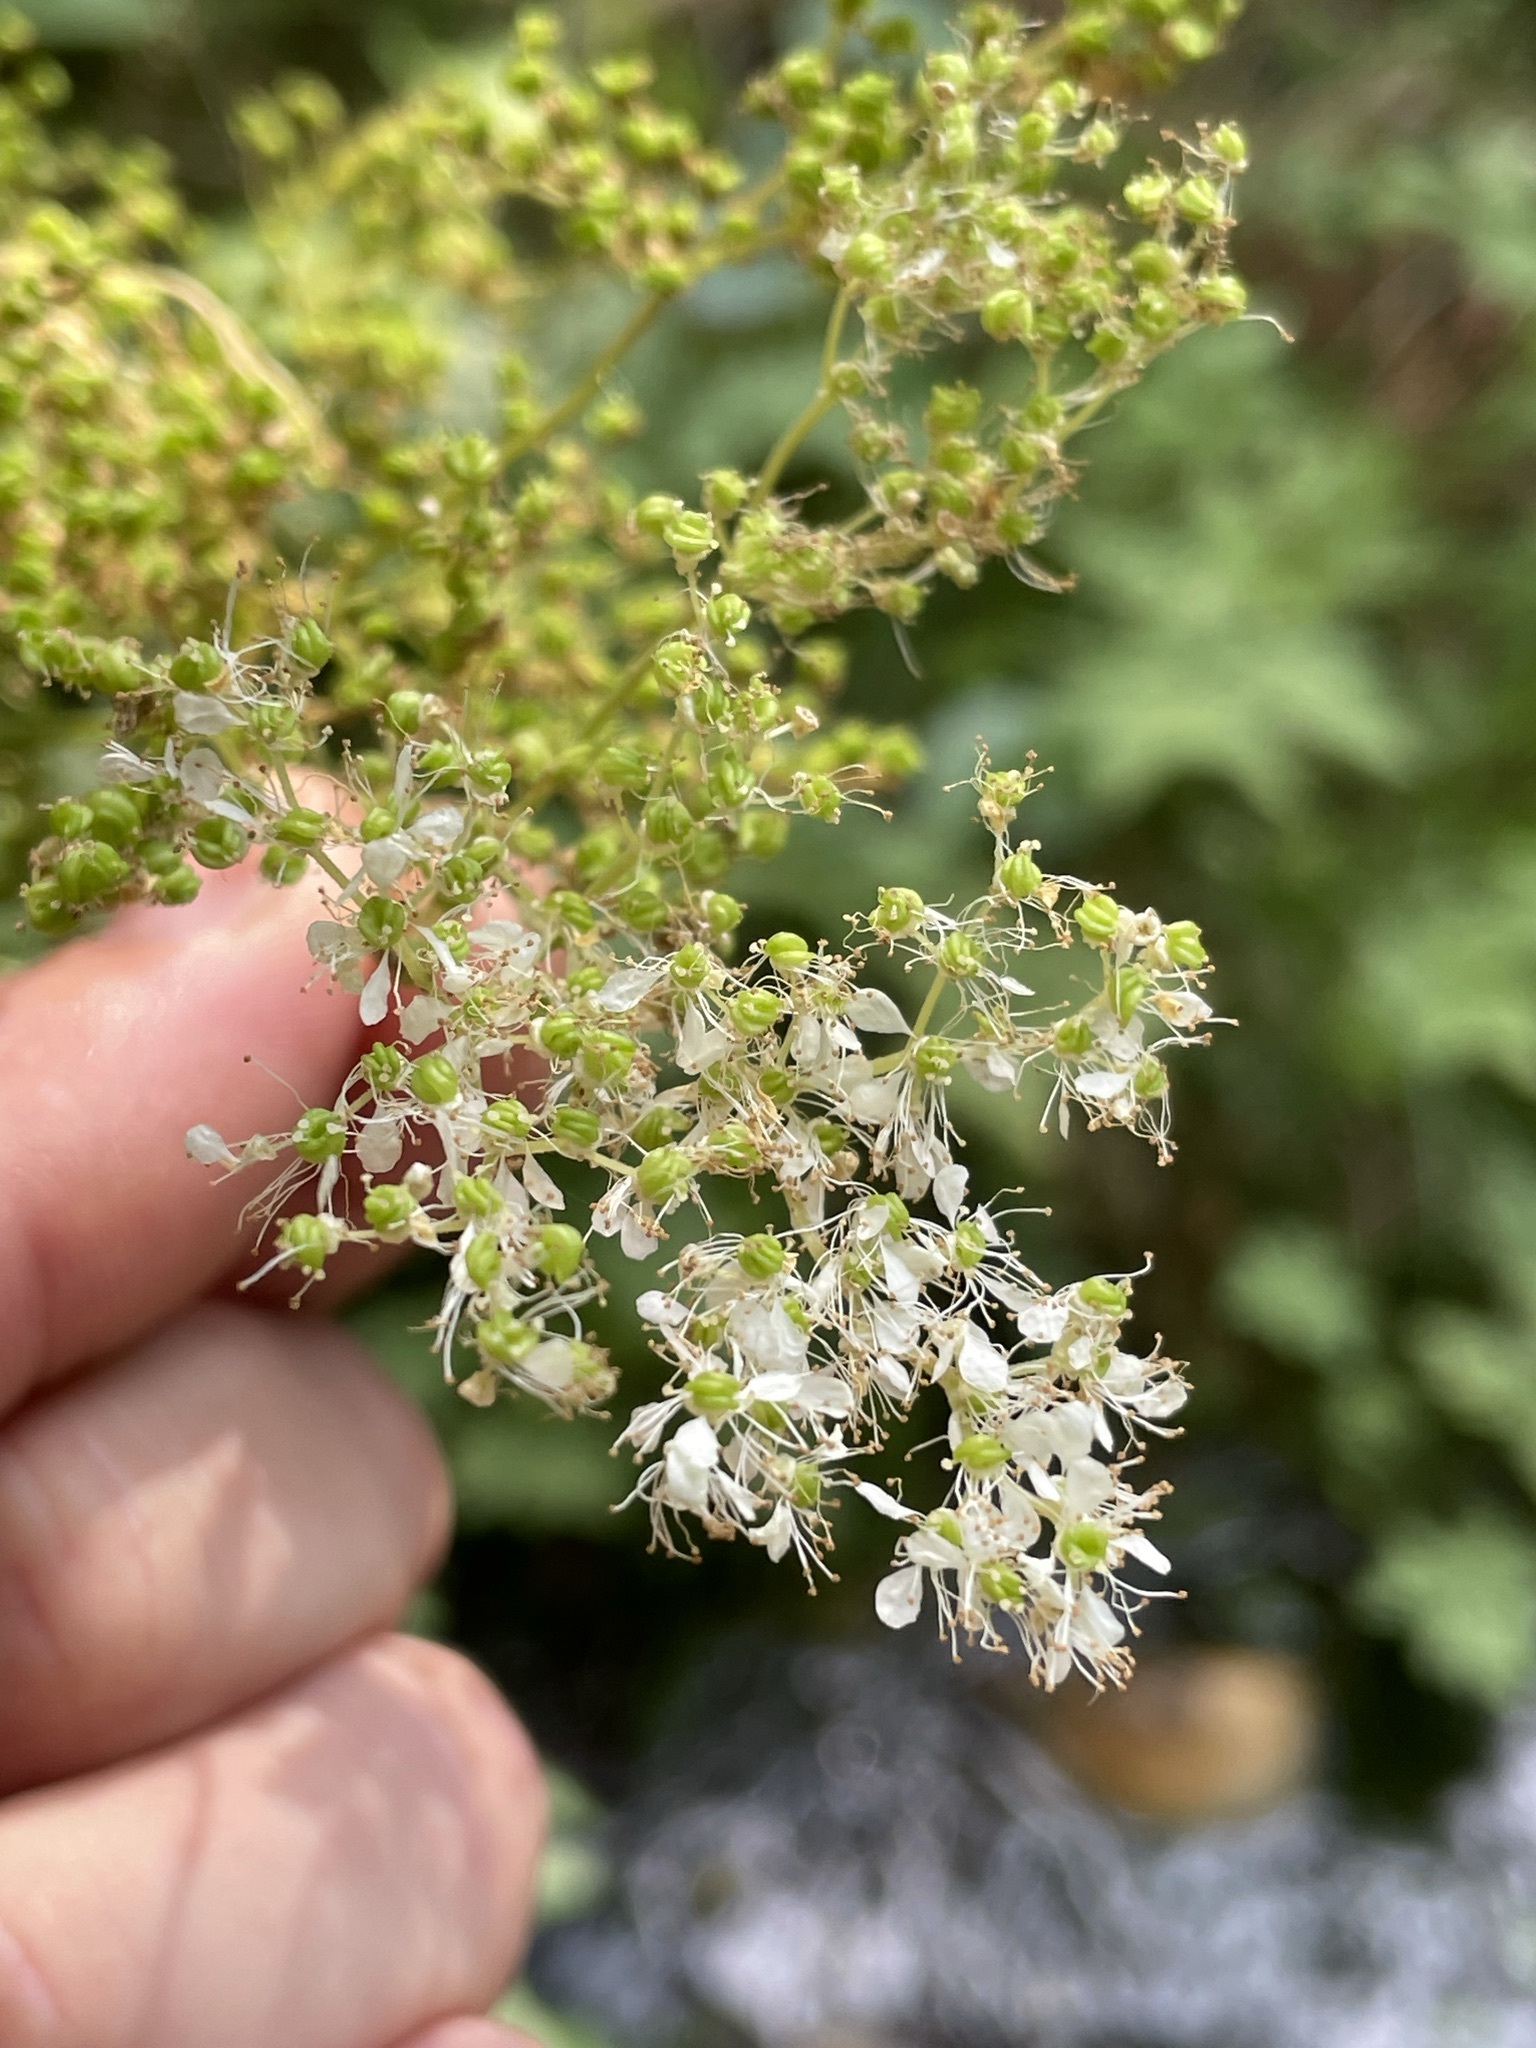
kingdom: Plantae
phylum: Tracheophyta
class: Magnoliopsida
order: Rosales
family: Rosaceae
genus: Filipendula
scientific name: Filipendula ulmaria
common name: Meadowsweet
